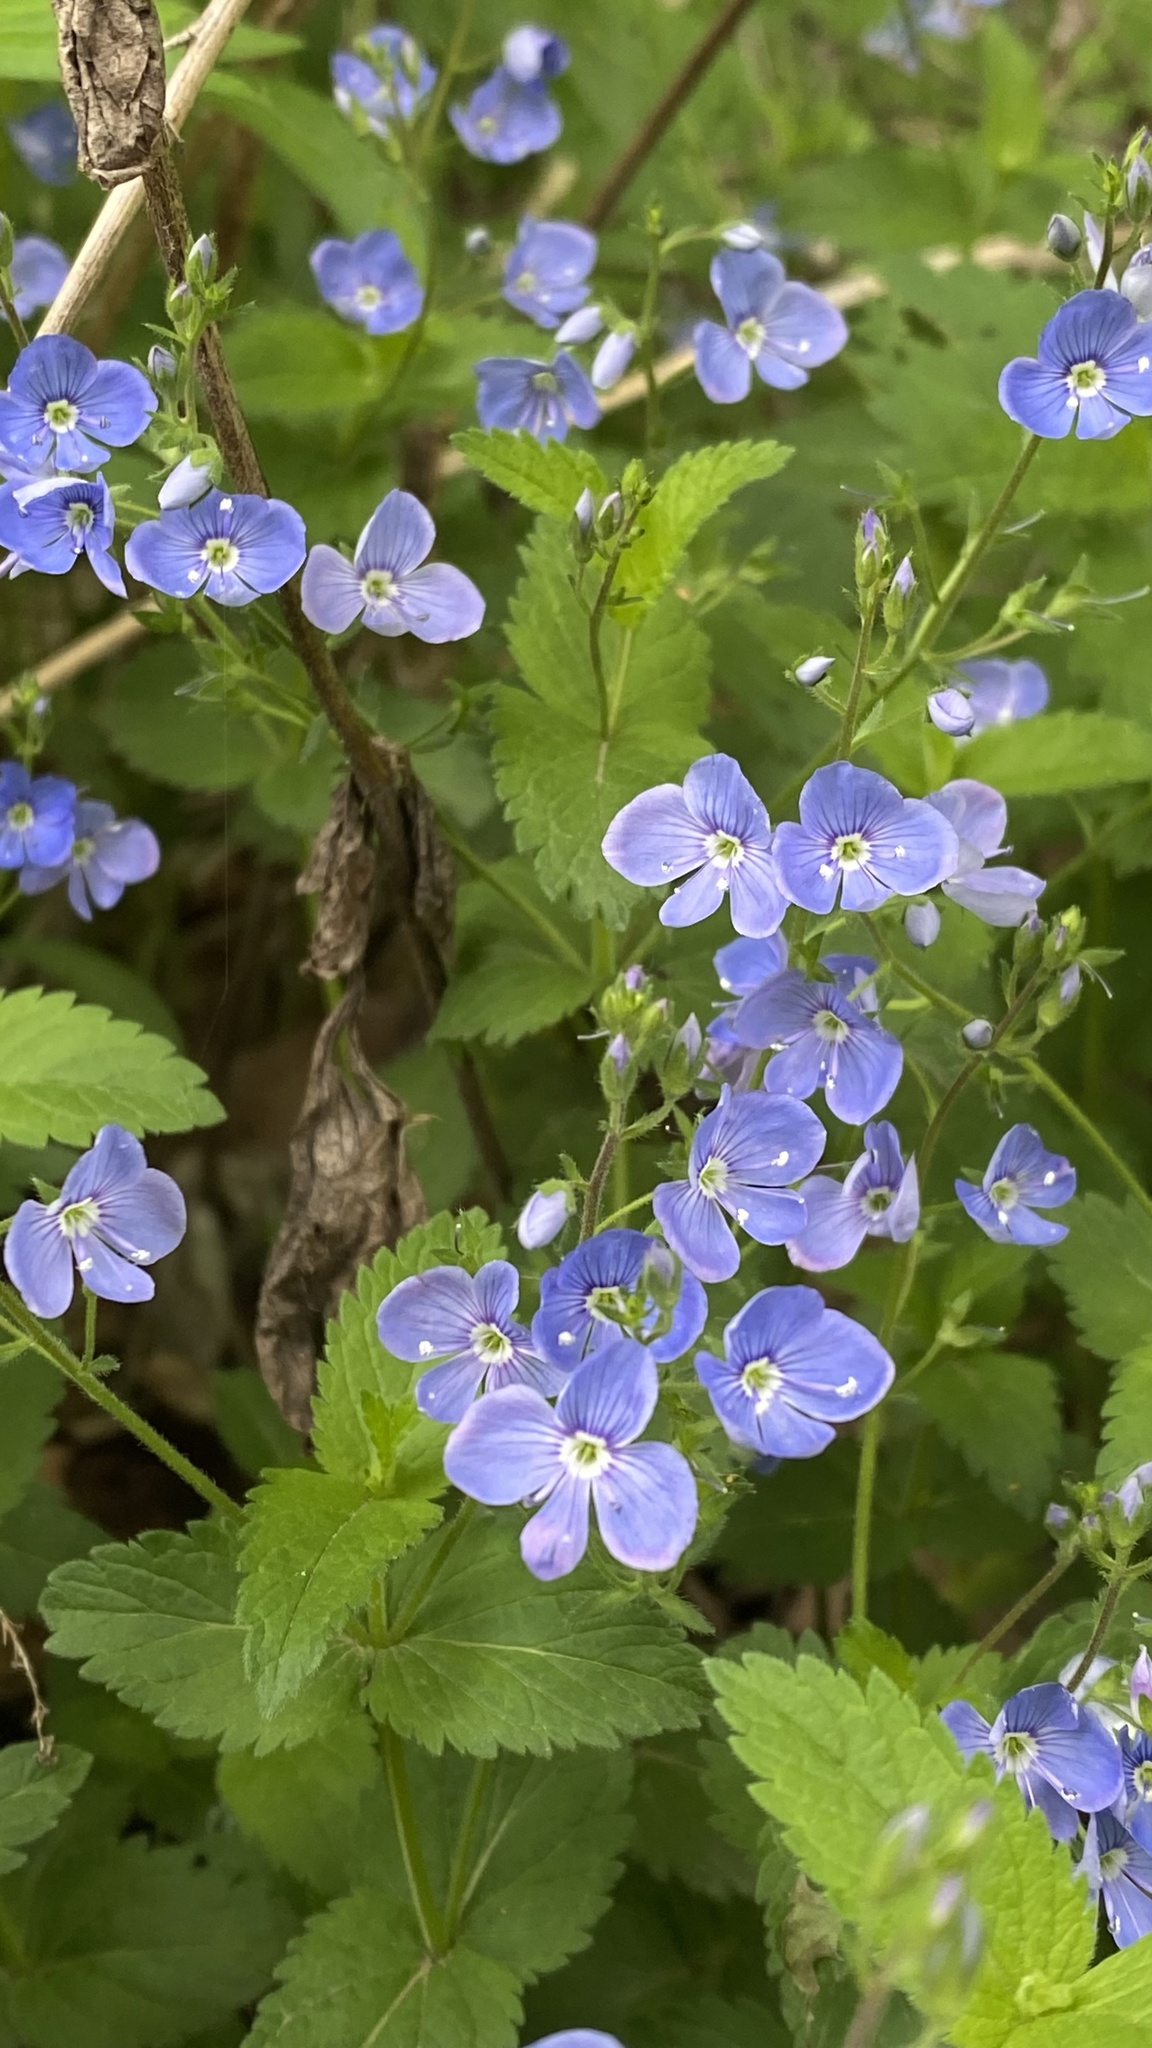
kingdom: Plantae
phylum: Tracheophyta
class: Magnoliopsida
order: Lamiales
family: Plantaginaceae
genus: Veronica
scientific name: Veronica chamaedrys
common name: Germander speedwell
